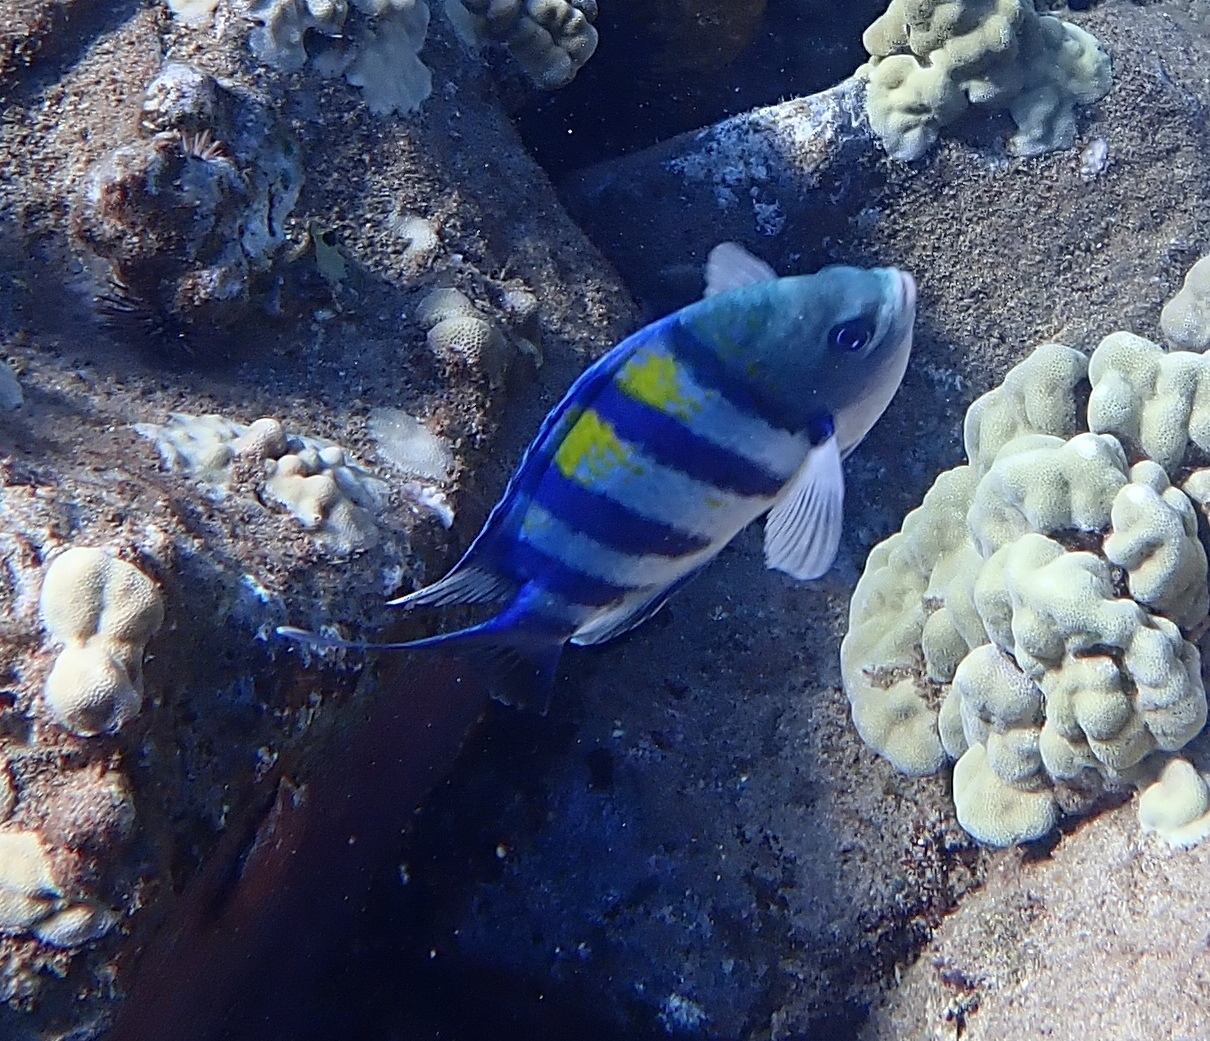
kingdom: Animalia
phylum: Chordata
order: Perciformes
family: Pomacentridae
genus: Abudefduf
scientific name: Abudefduf vaigiensis
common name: Indo-pacific sergeant
